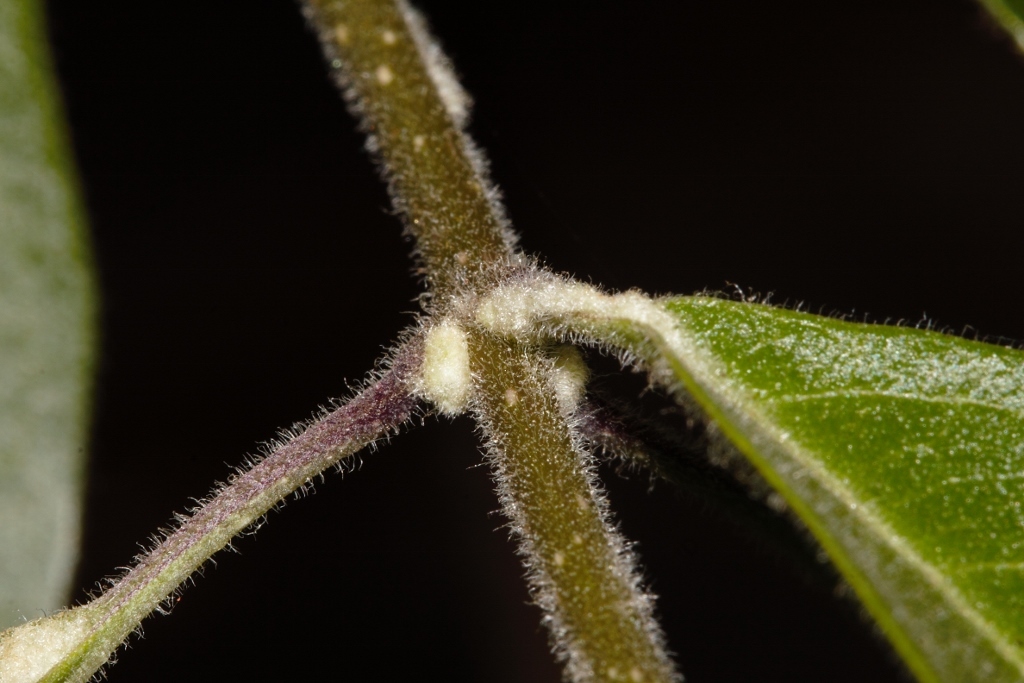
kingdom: Plantae
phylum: Tracheophyta
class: Magnoliopsida
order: Lamiales
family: Lamiaceae
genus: Volkameria
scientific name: Volkameria eriophylla
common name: Hairy tinderwood
